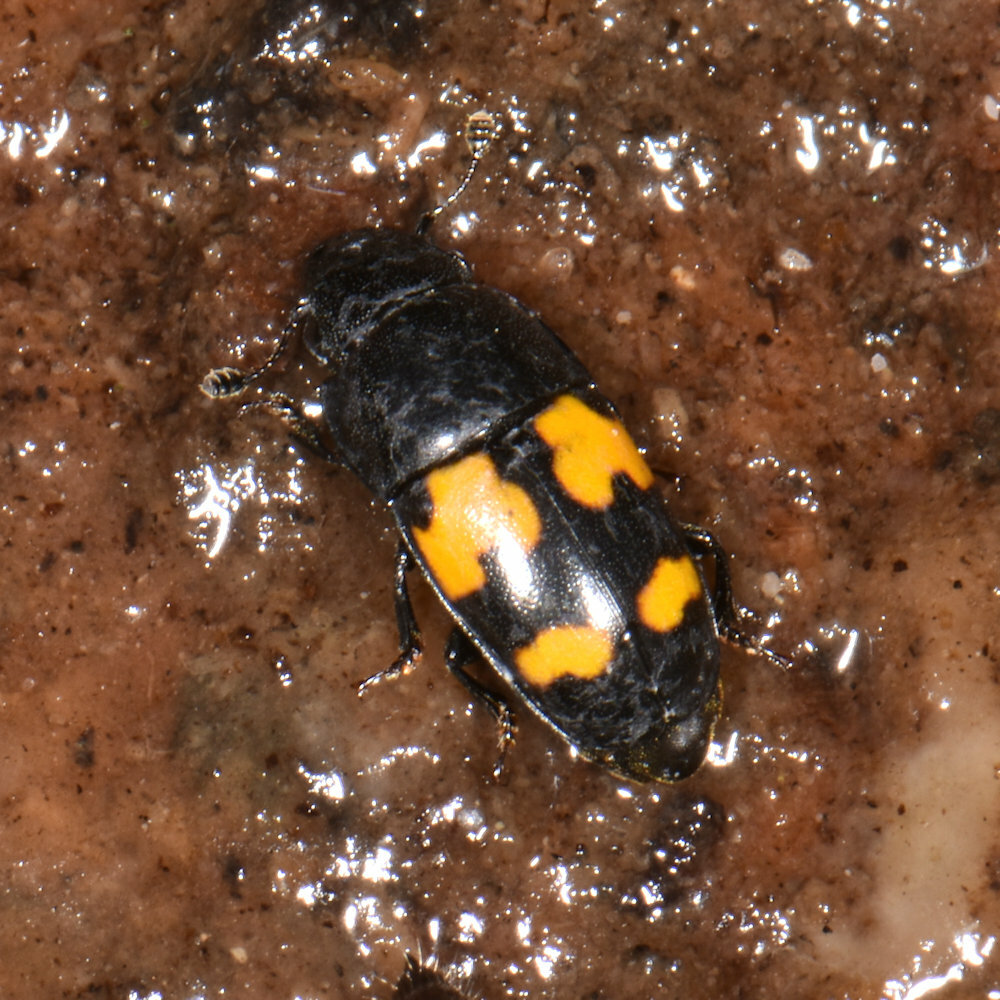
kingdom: Animalia
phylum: Arthropoda
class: Insecta
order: Coleoptera
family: Nitidulidae
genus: Glischrochilus
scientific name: Glischrochilus fasciatus
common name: Picnic beetle
